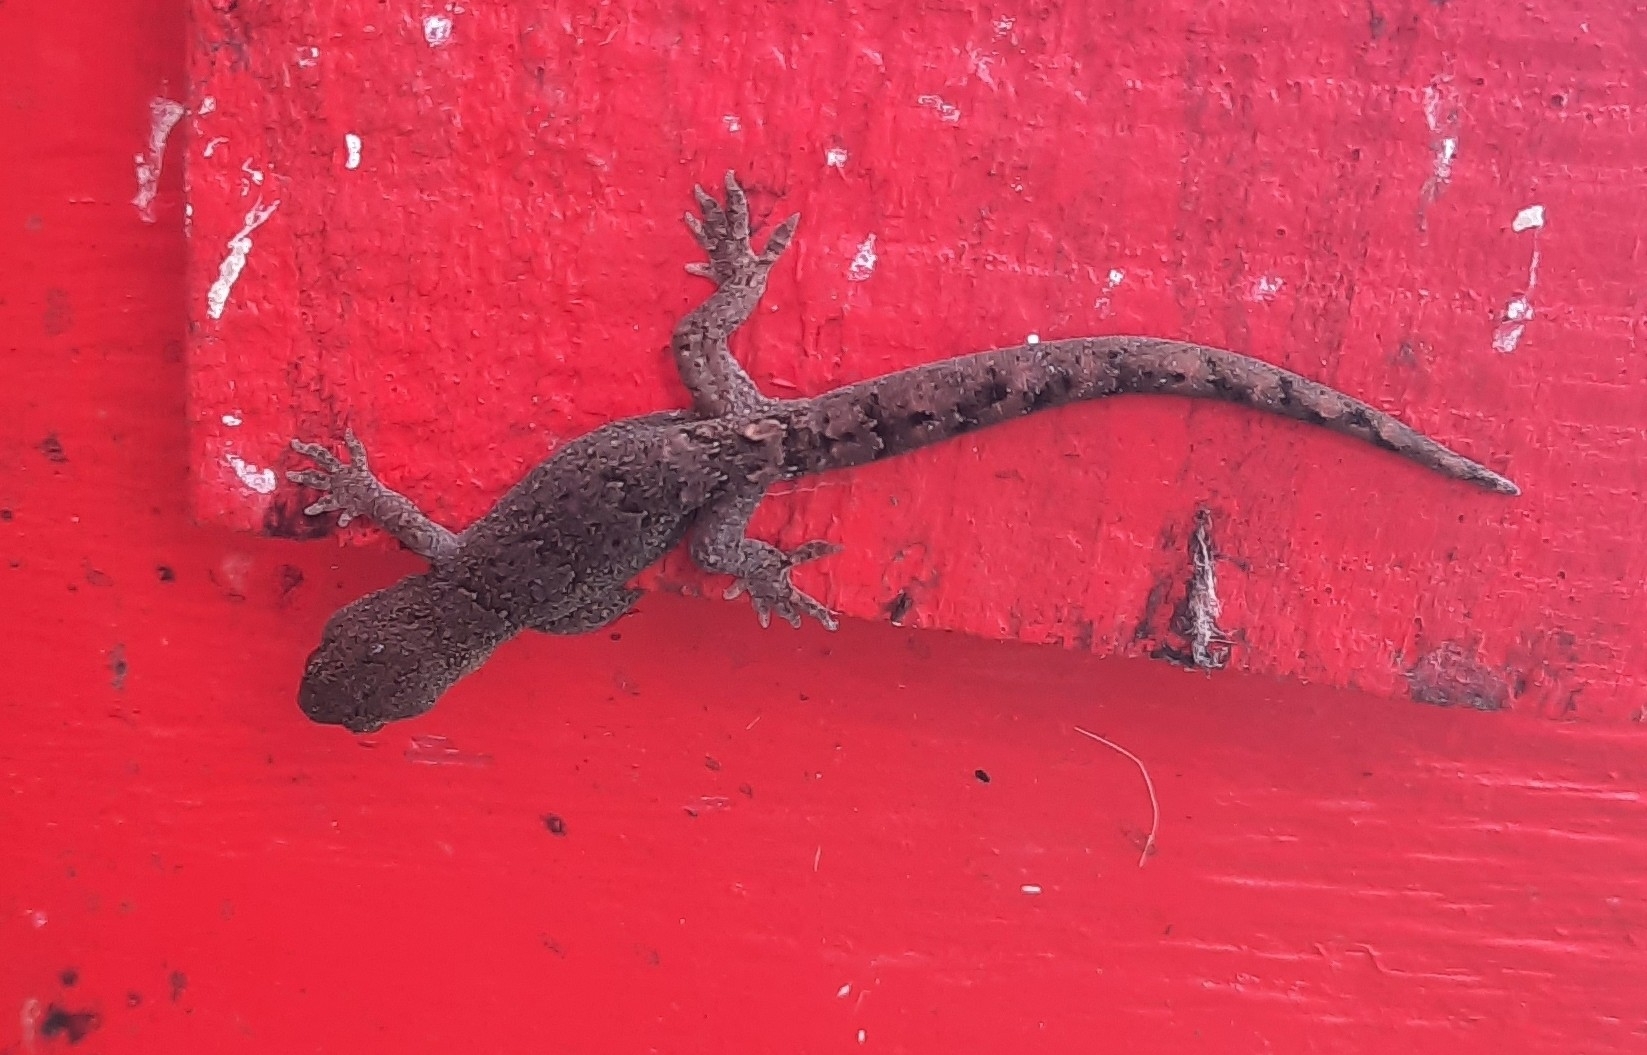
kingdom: Animalia
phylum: Chordata
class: Squamata
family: Diplodactylidae
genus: Woodworthia
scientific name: Woodworthia maculata
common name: Raukawa gecko
